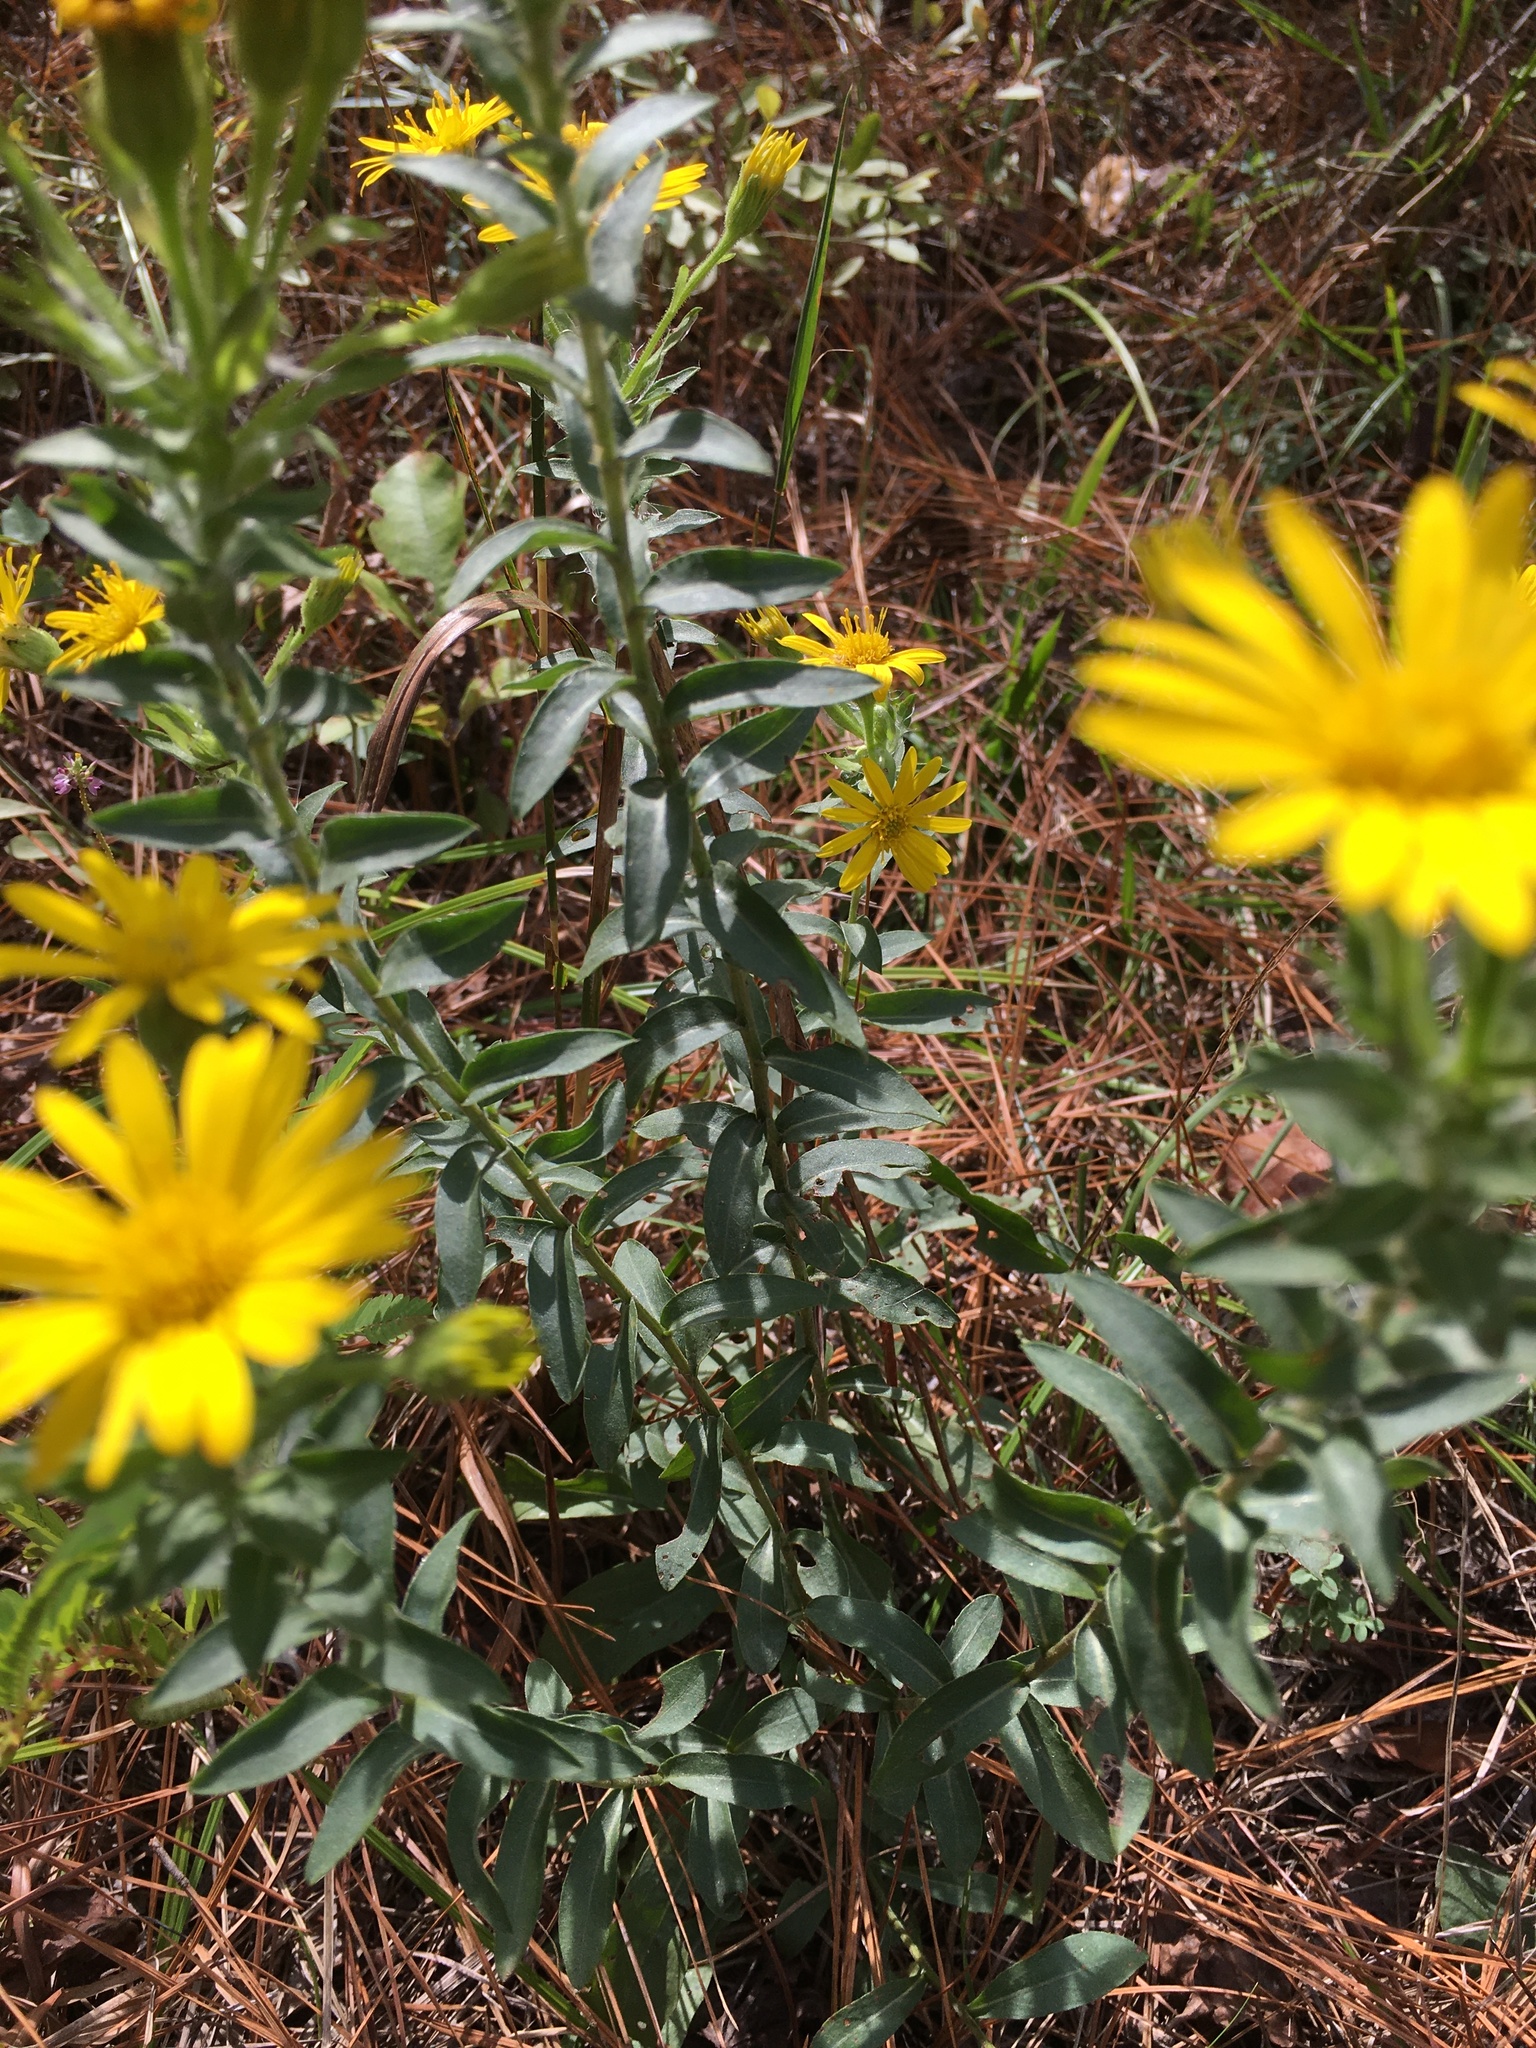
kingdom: Plantae
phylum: Tracheophyta
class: Magnoliopsida
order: Asterales
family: Asteraceae
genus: Chrysopsis
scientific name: Chrysopsis mariana
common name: Maryland golden-aster
